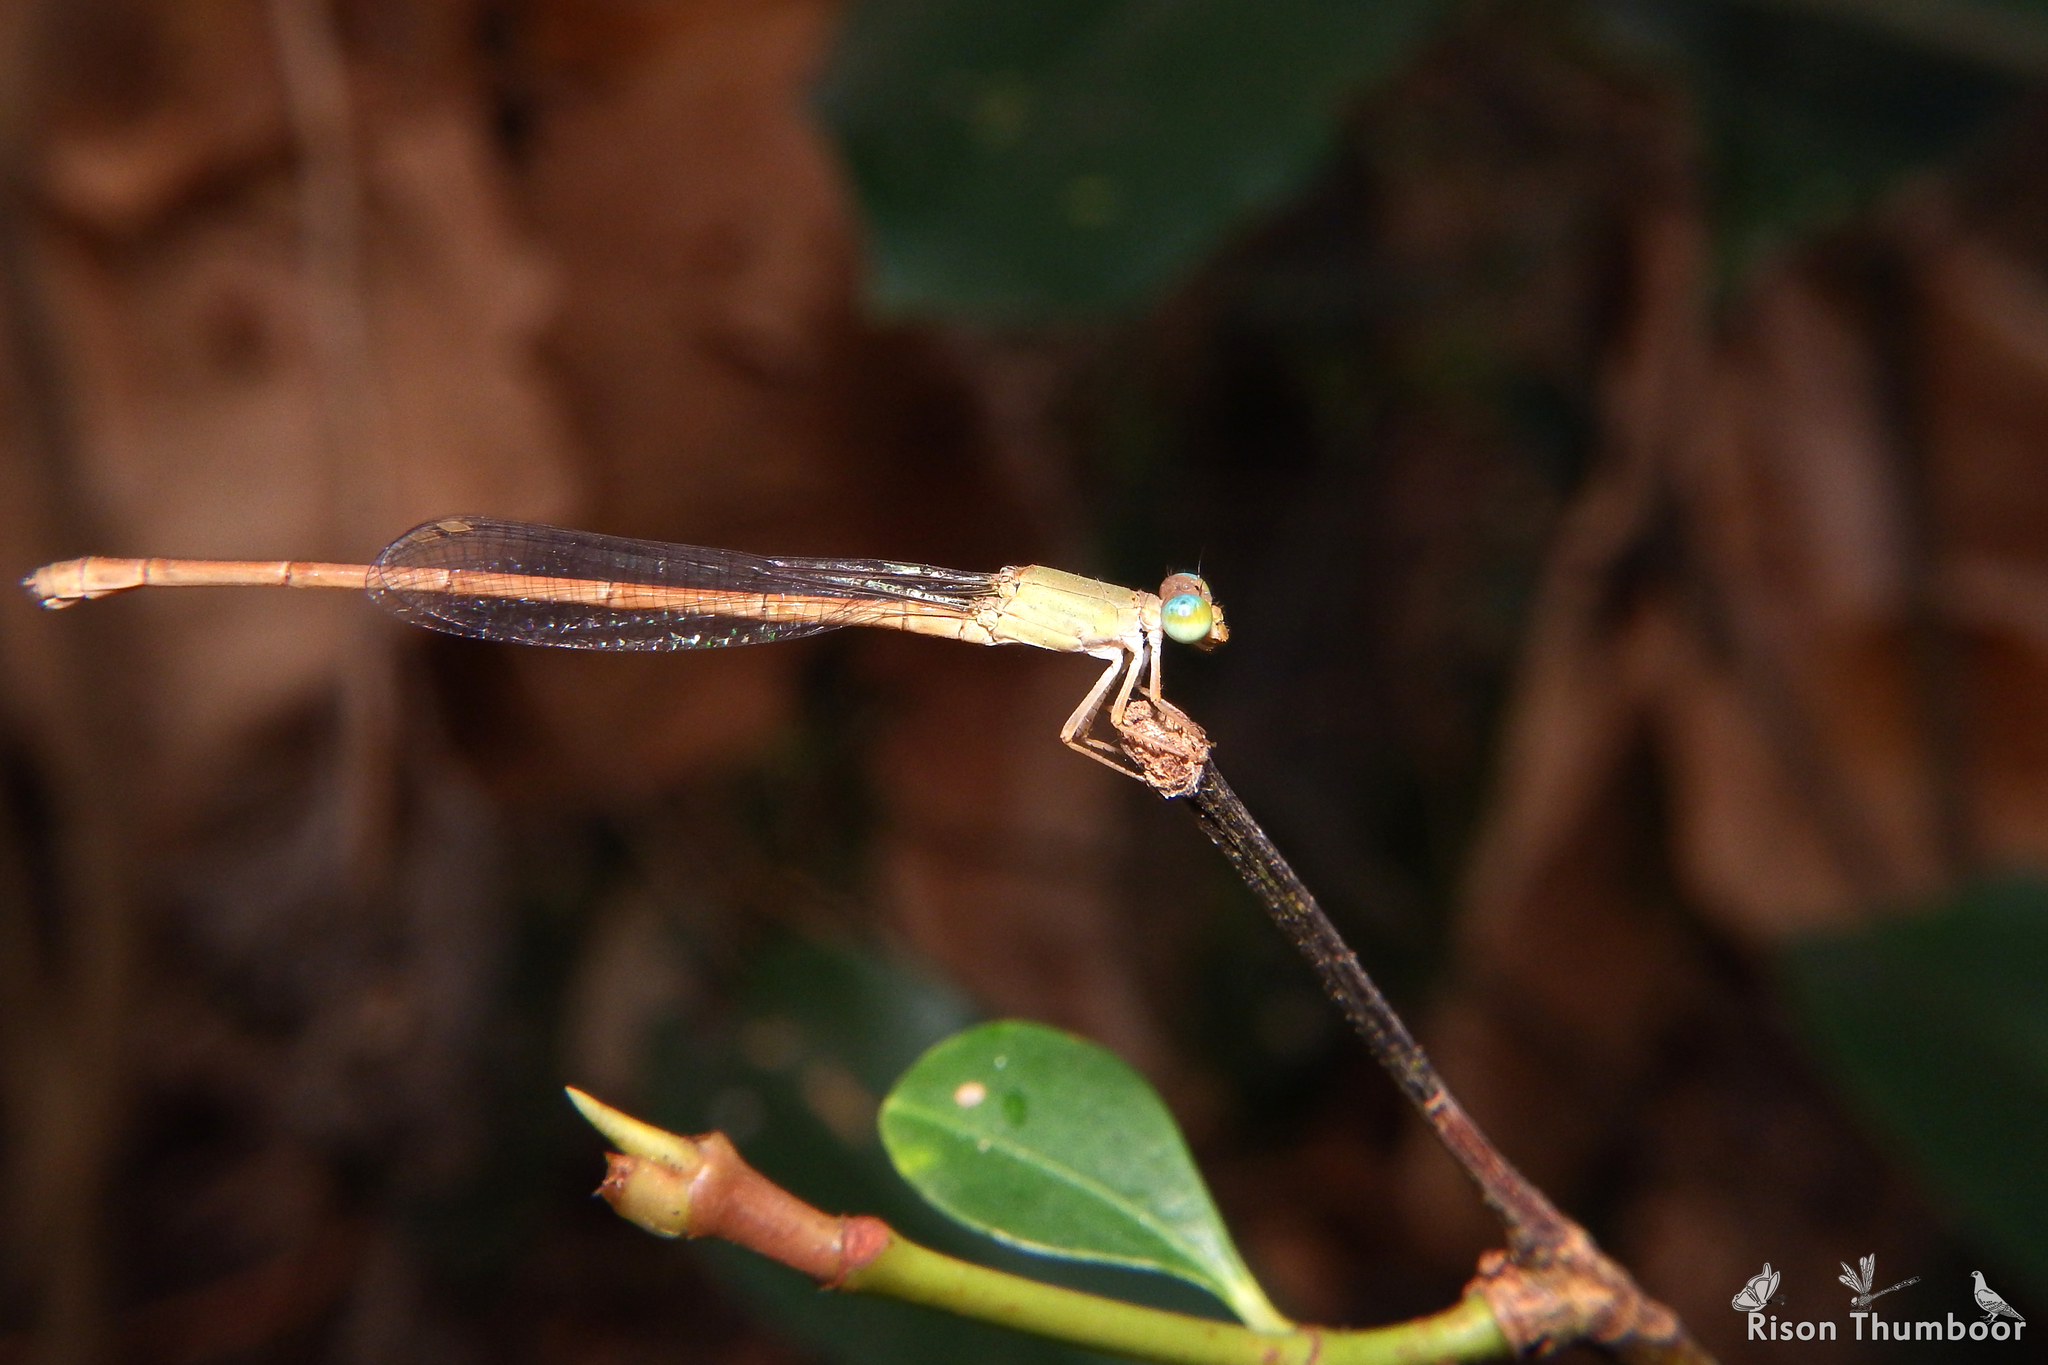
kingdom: Animalia
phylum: Arthropoda
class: Insecta
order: Odonata
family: Coenagrionidae
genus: Ceriagrion
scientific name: Ceriagrion rubiae
